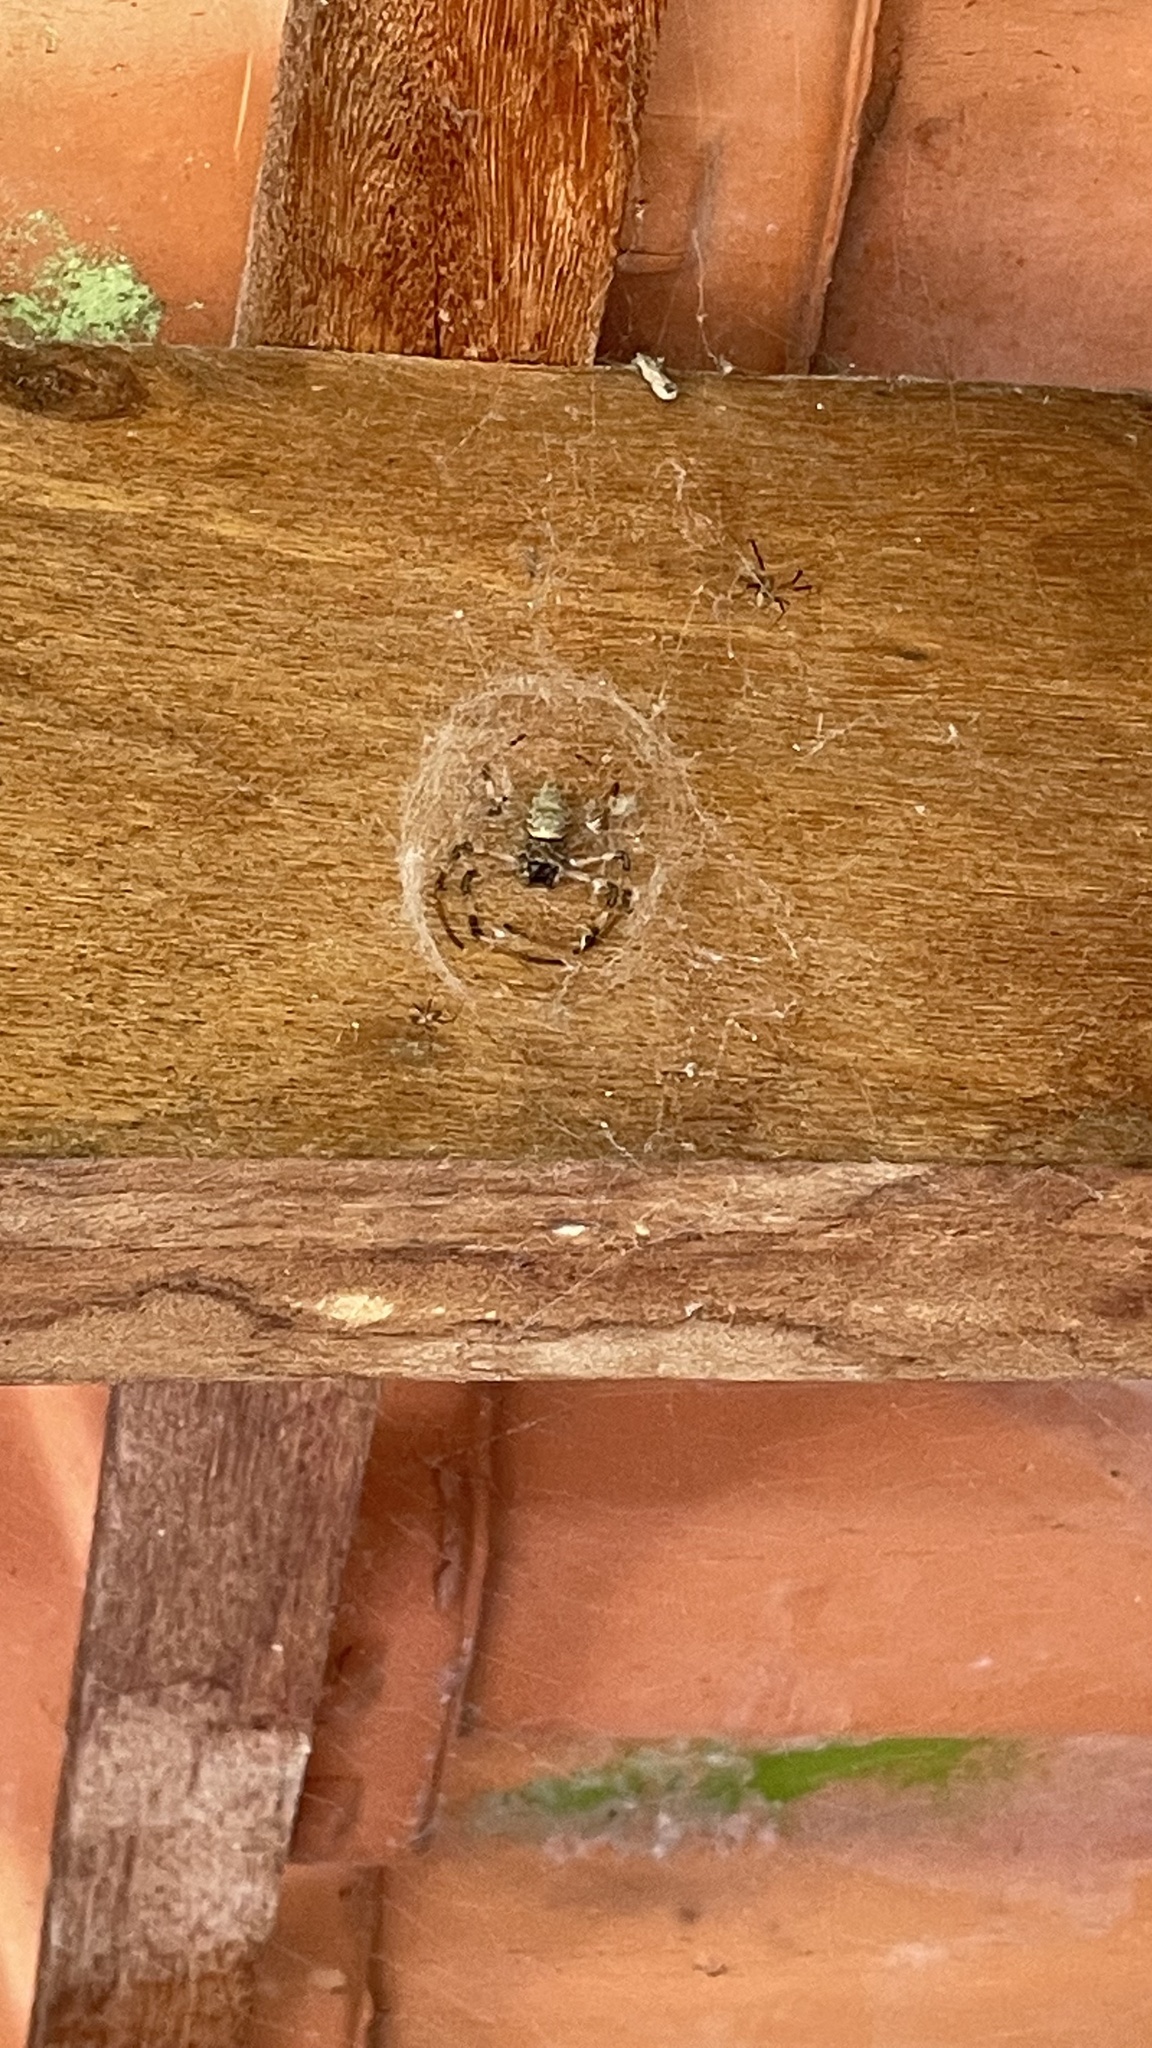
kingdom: Animalia
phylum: Arthropoda
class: Arachnida
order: Araneae
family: Araneidae
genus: Nephilingis
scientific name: Nephilingis cruentata
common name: African hermit spider
